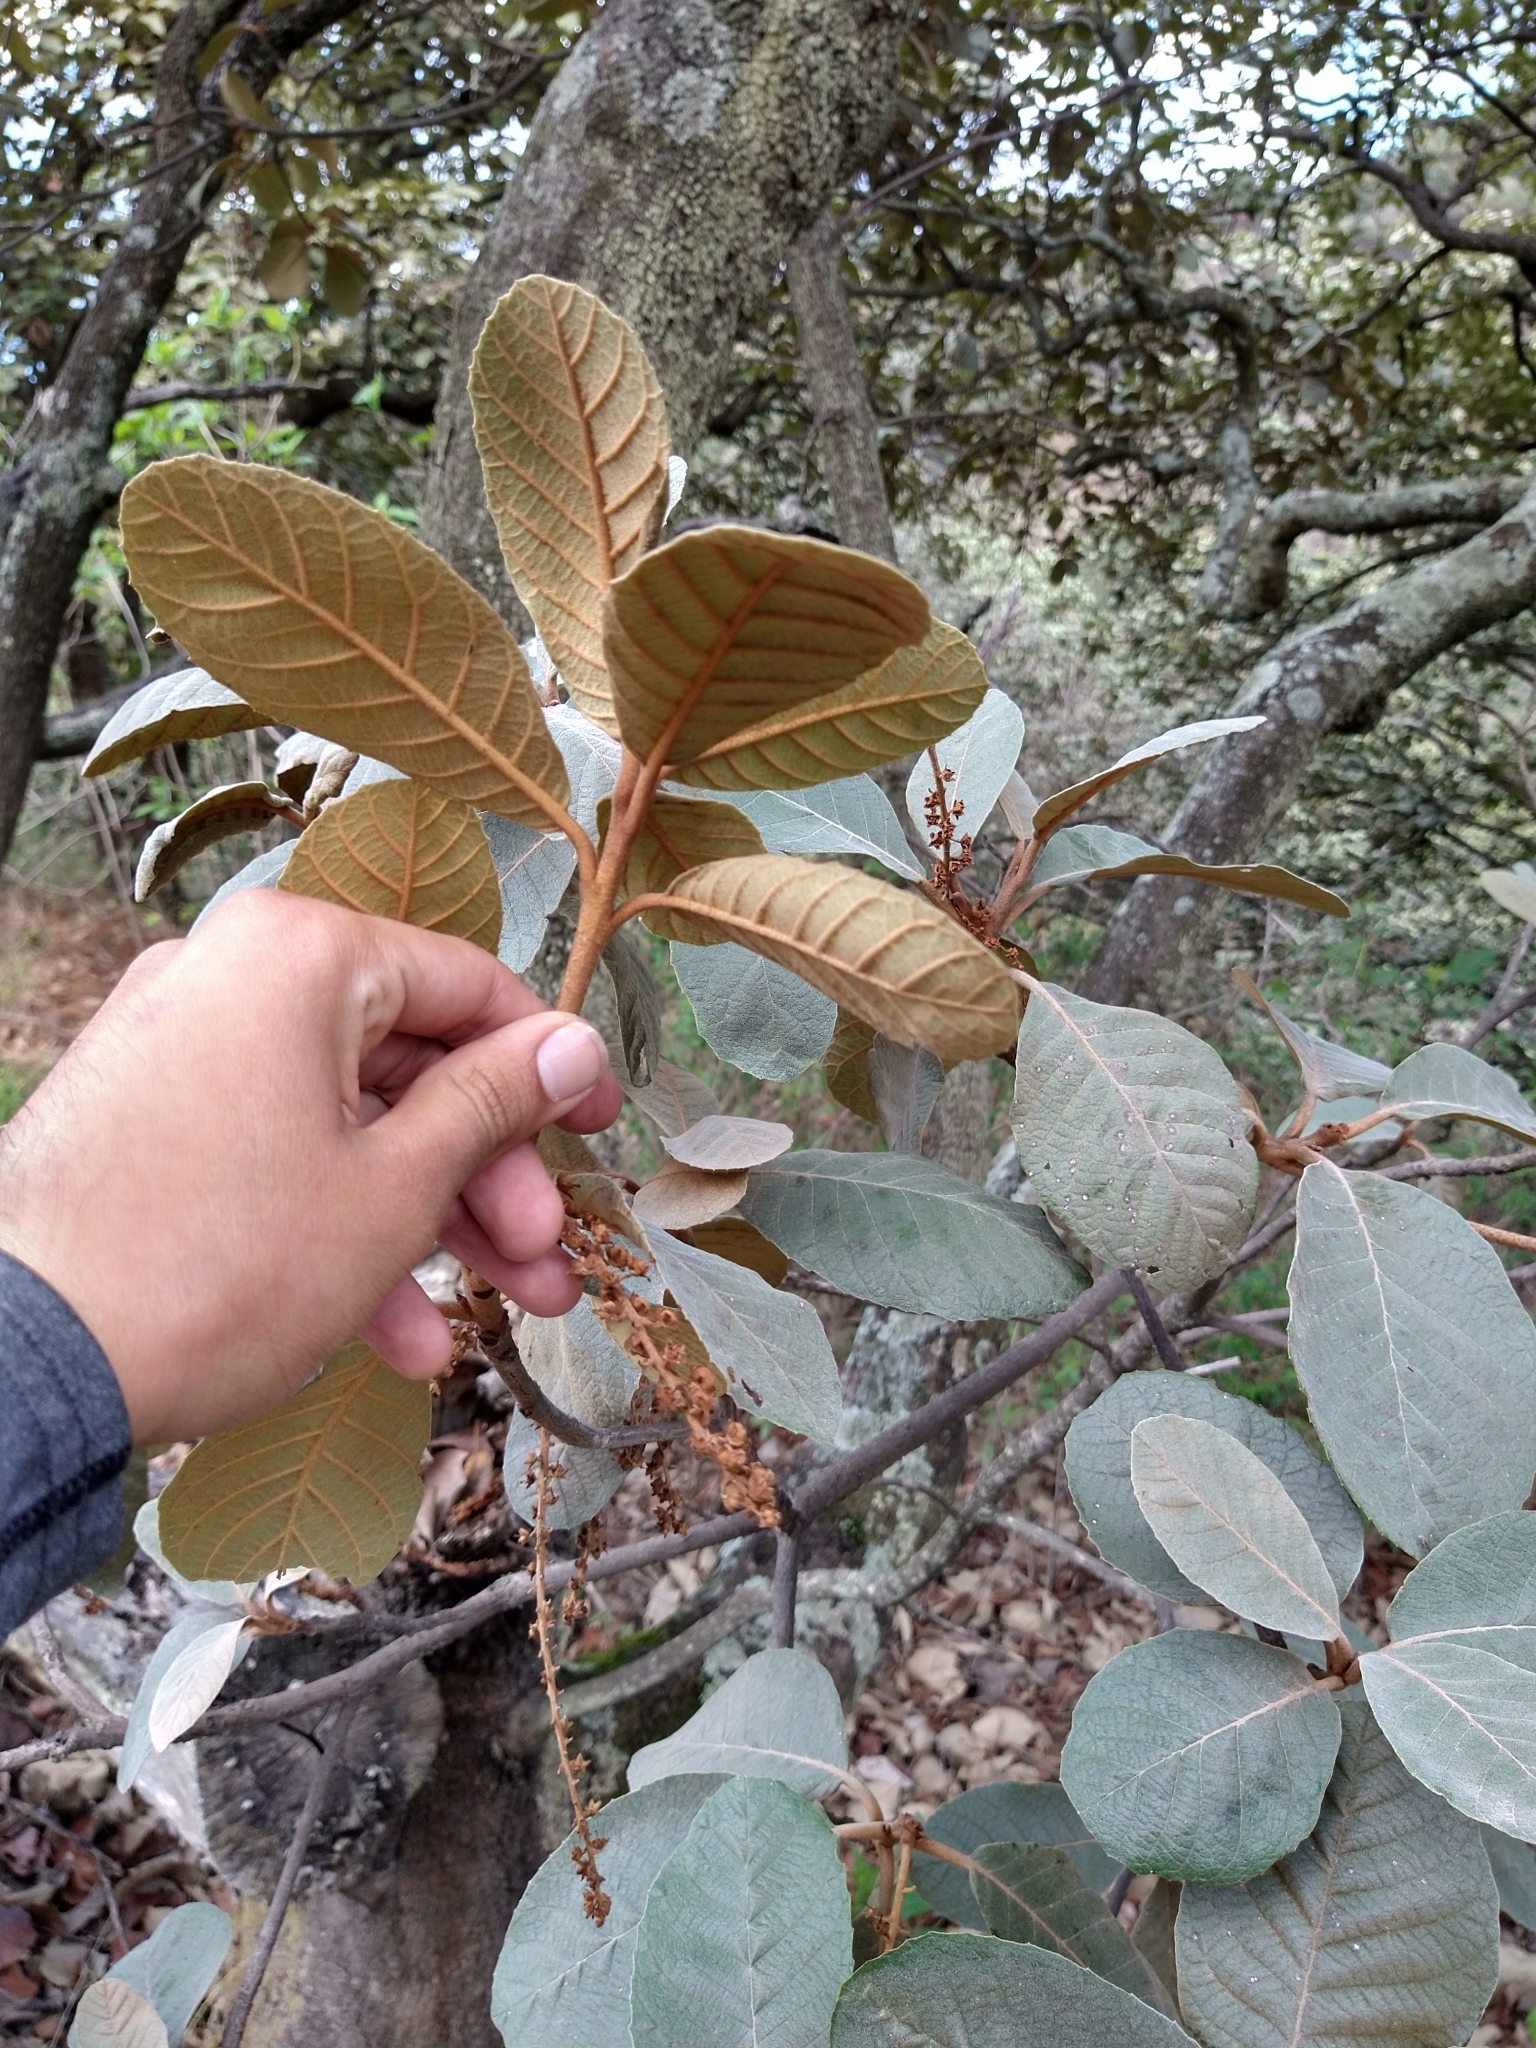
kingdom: Plantae
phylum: Tracheophyta
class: Magnoliopsida
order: Ericales
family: Clethraceae
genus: Clethra
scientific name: Clethra rosei
